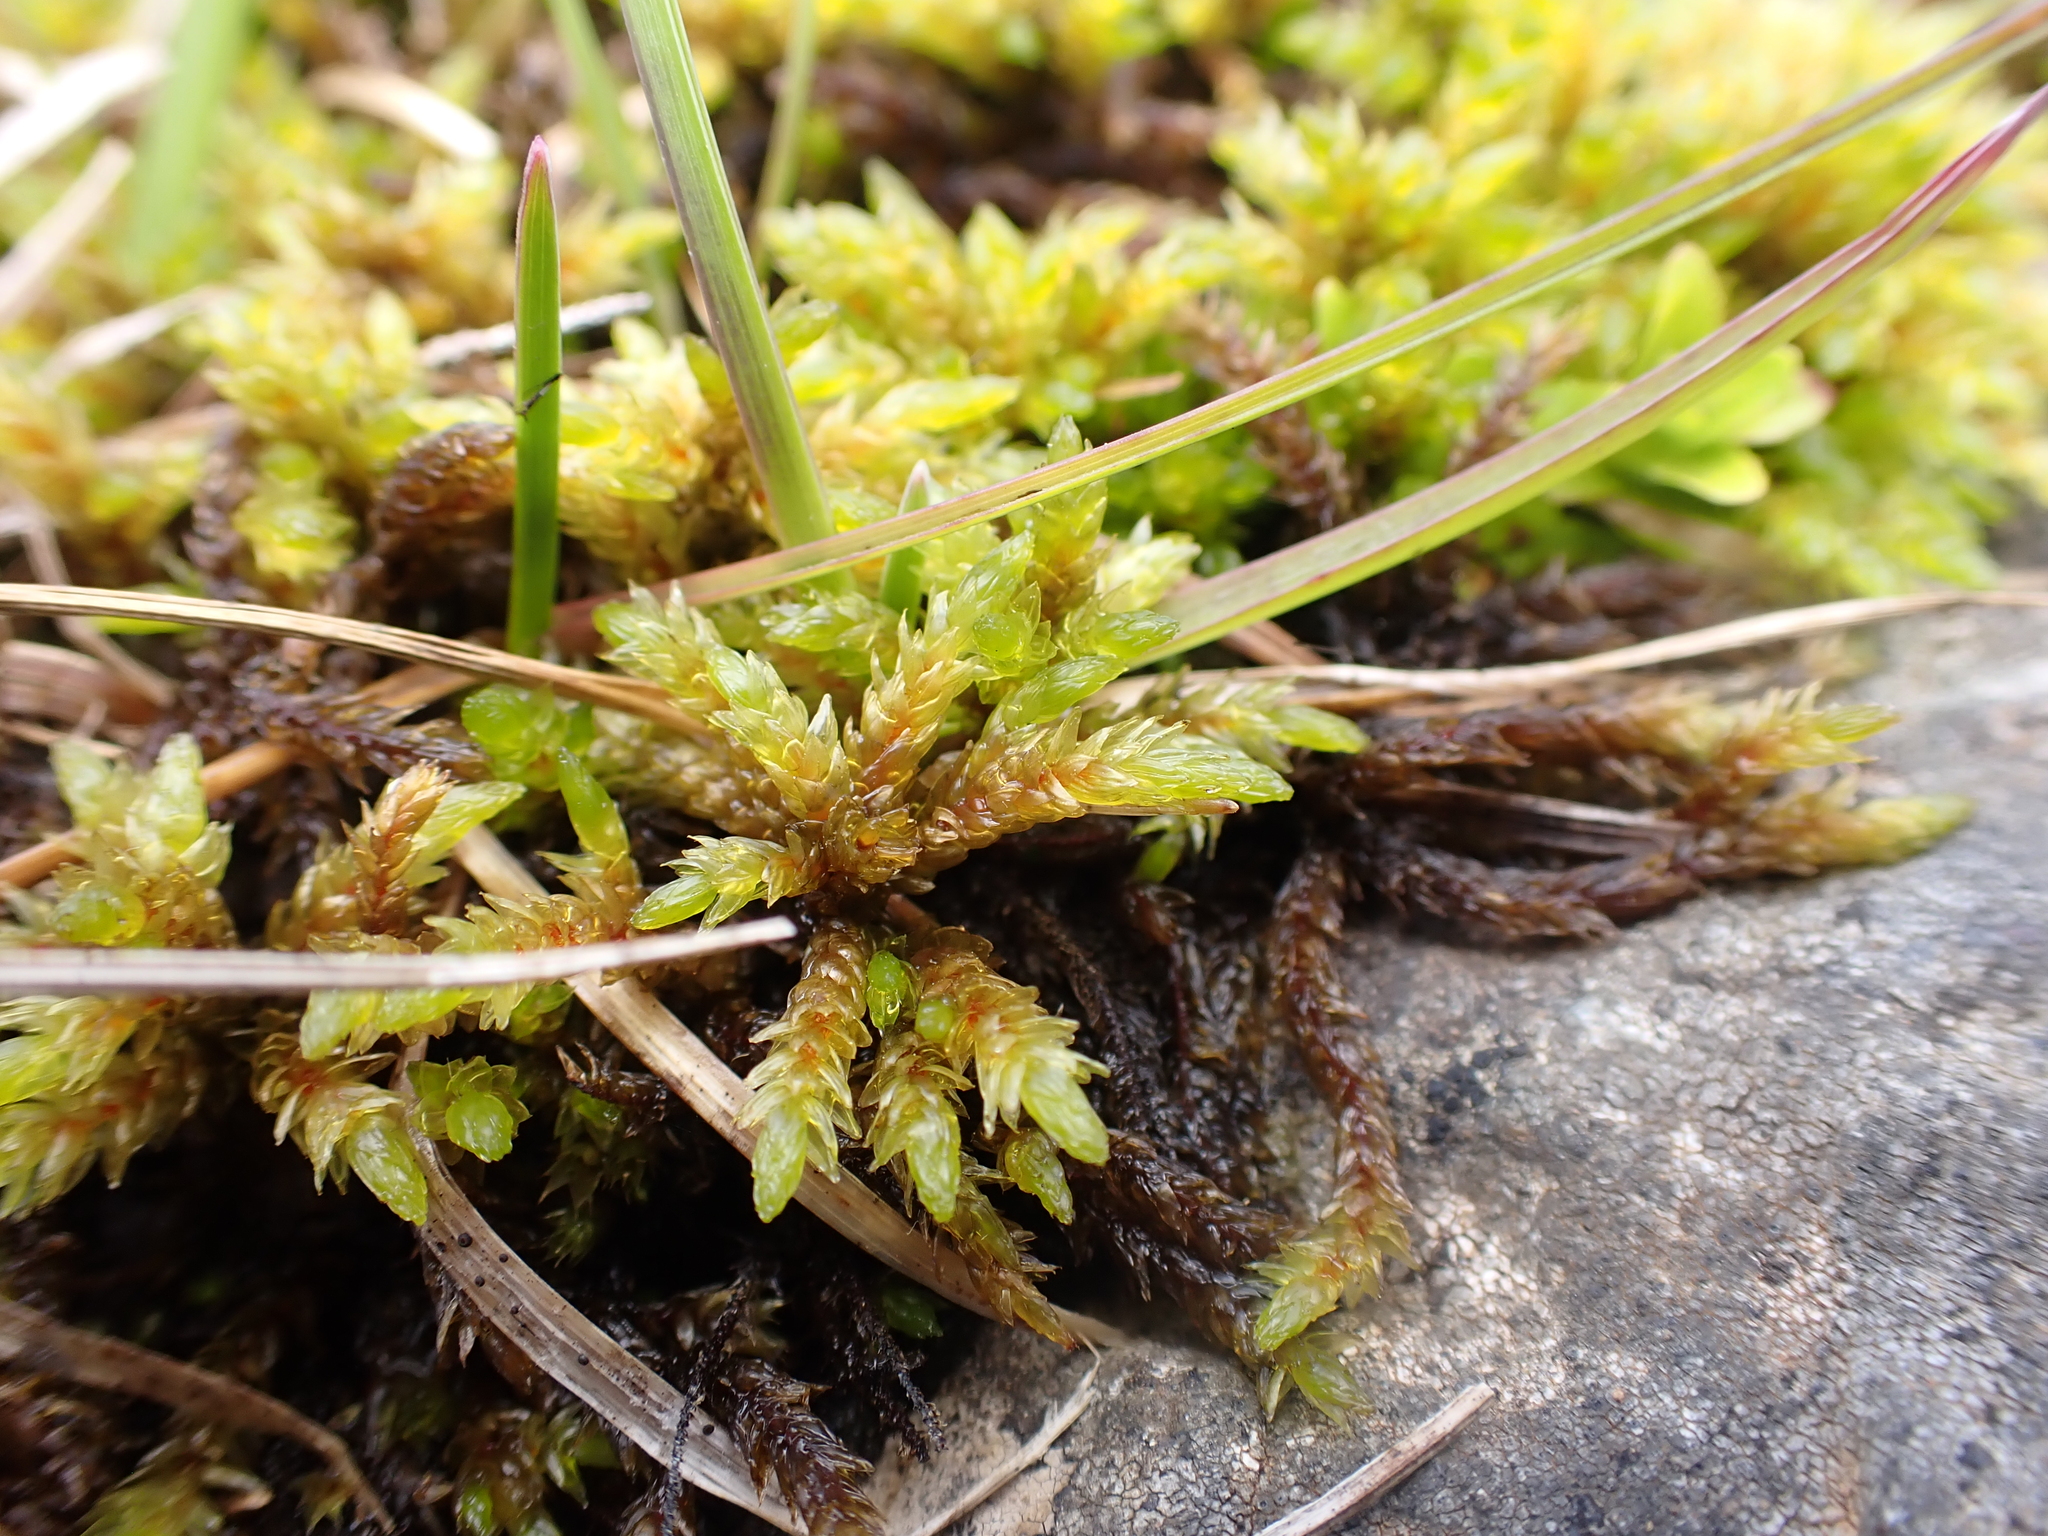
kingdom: Plantae
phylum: Bryophyta
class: Bryopsida
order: Hypnales
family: Climaciaceae
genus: Climacium
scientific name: Climacium dendroides
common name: Northern tree moss
